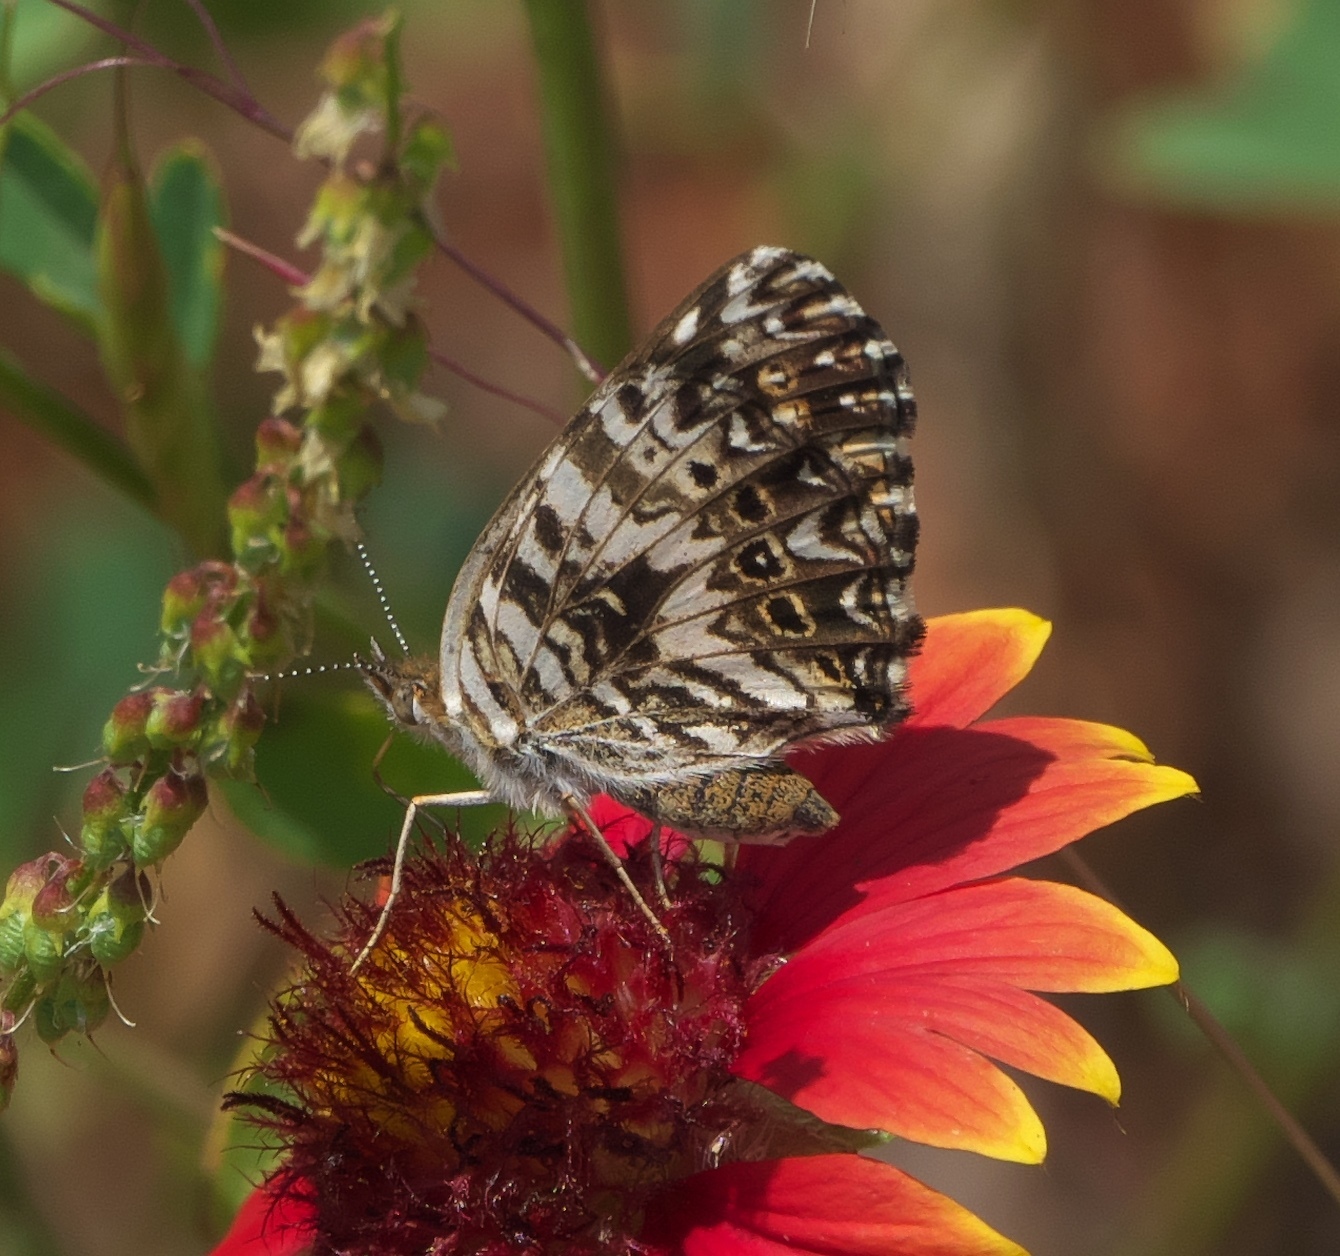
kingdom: Animalia
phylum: Arthropoda
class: Insecta
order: Lepidoptera
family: Nymphalidae
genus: Chlosyne
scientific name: Chlosyne gorgone
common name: Gorgone checkerspot
